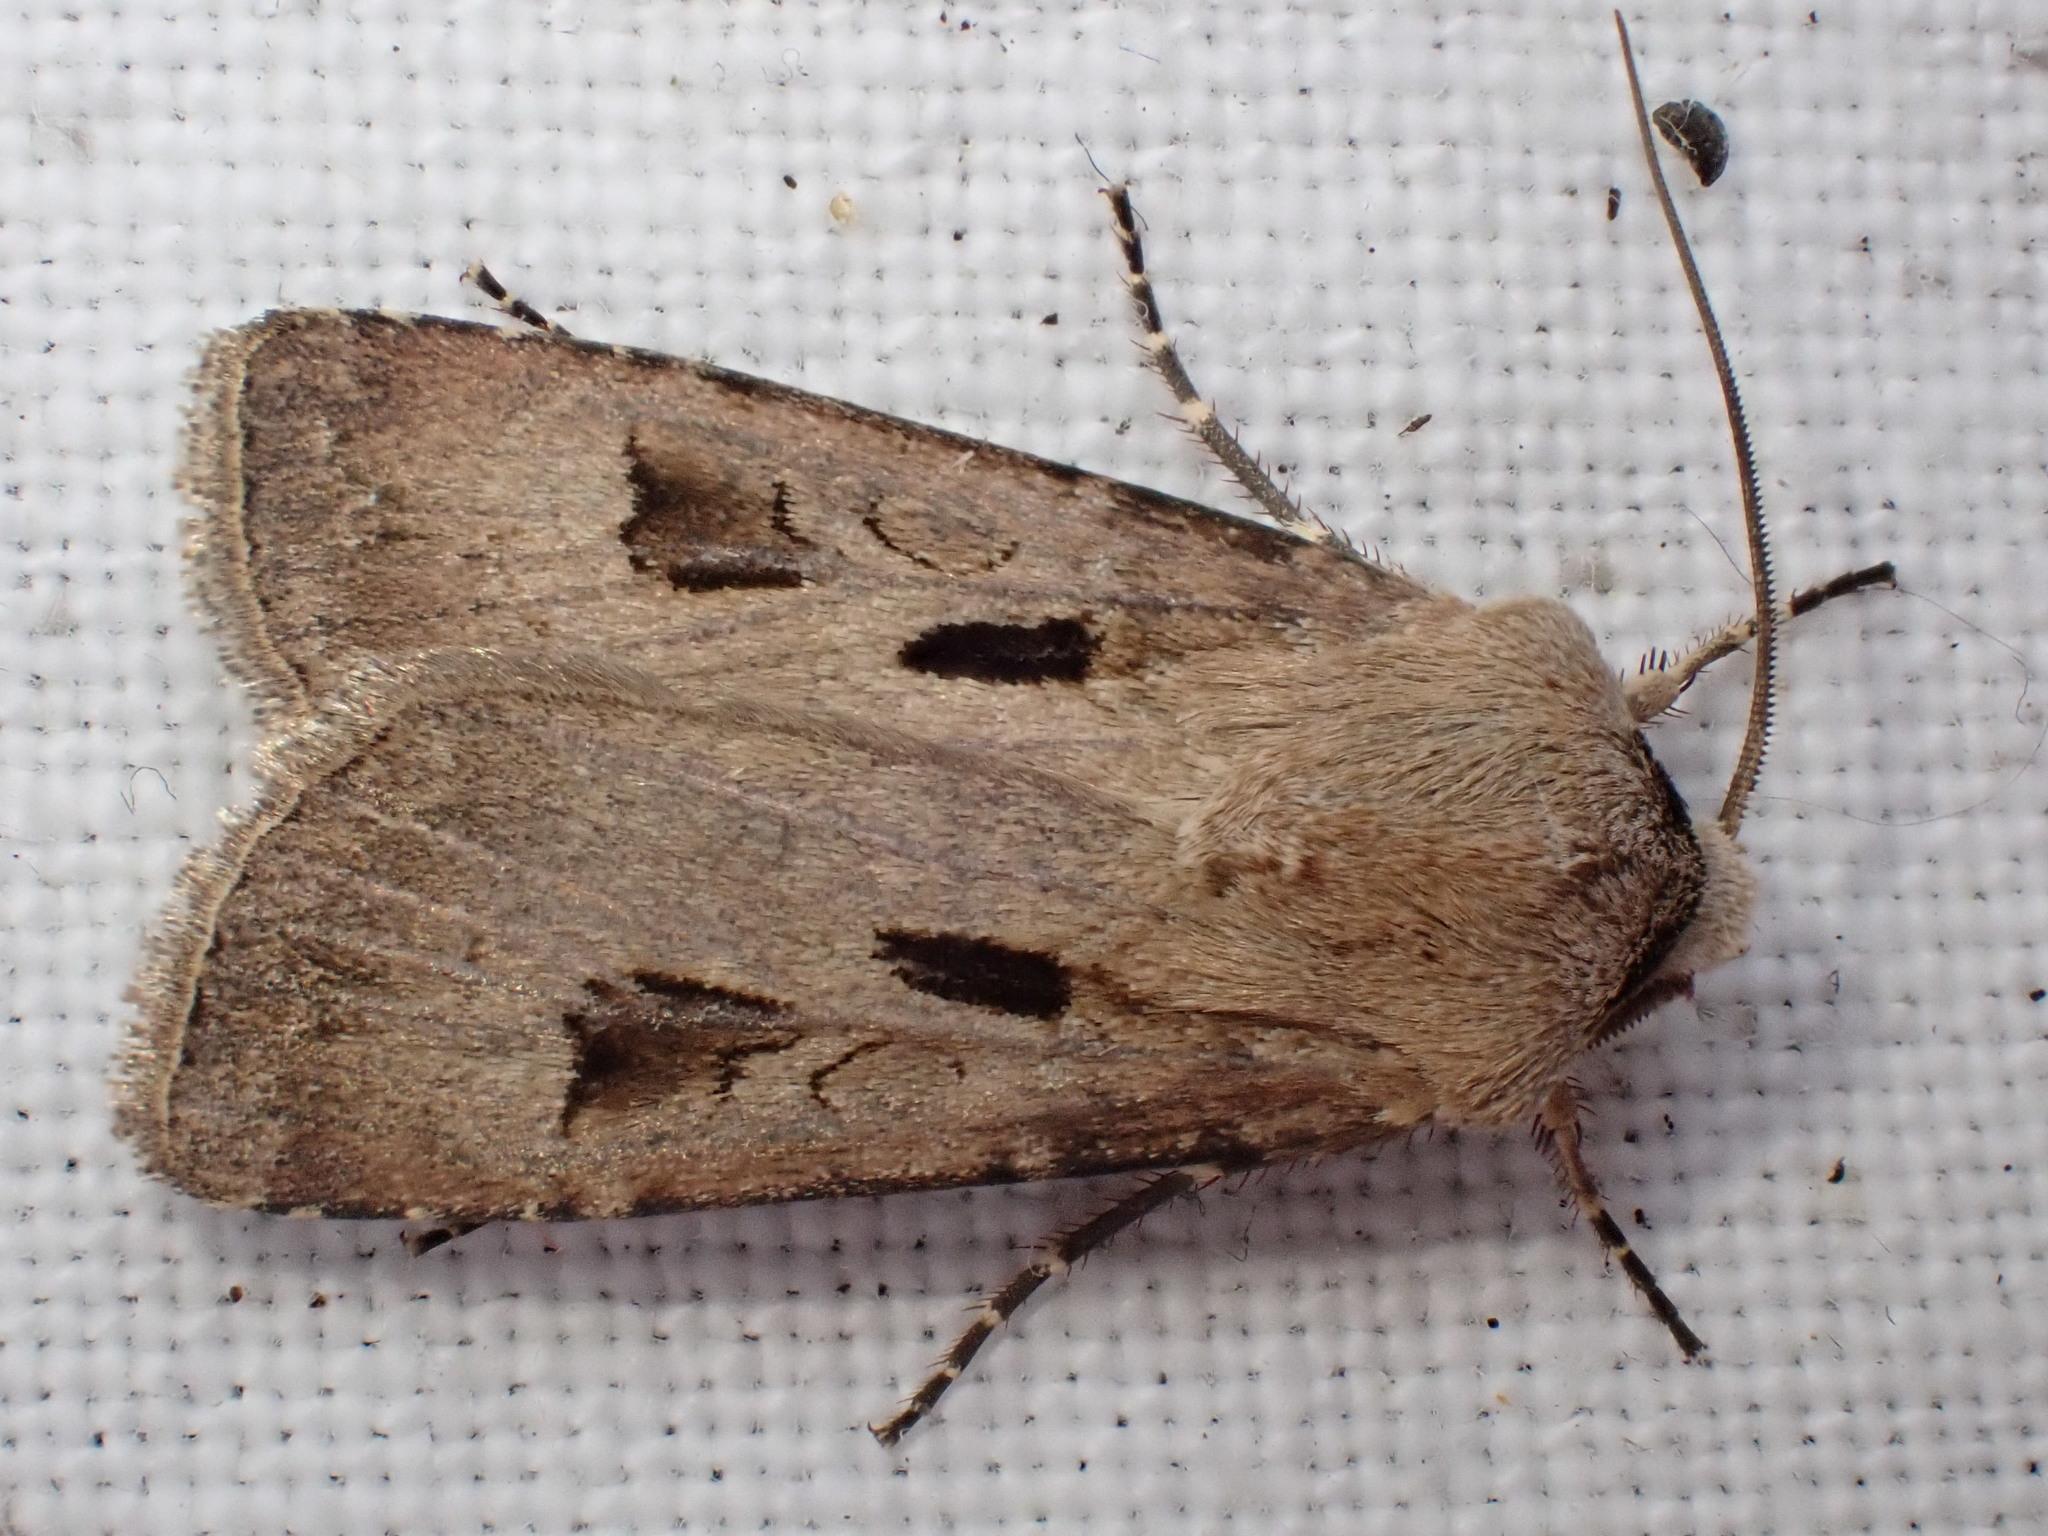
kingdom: Animalia
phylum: Arthropoda
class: Insecta
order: Lepidoptera
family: Noctuidae
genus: Agrotis
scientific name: Agrotis exclamationis
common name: Heart and dart
